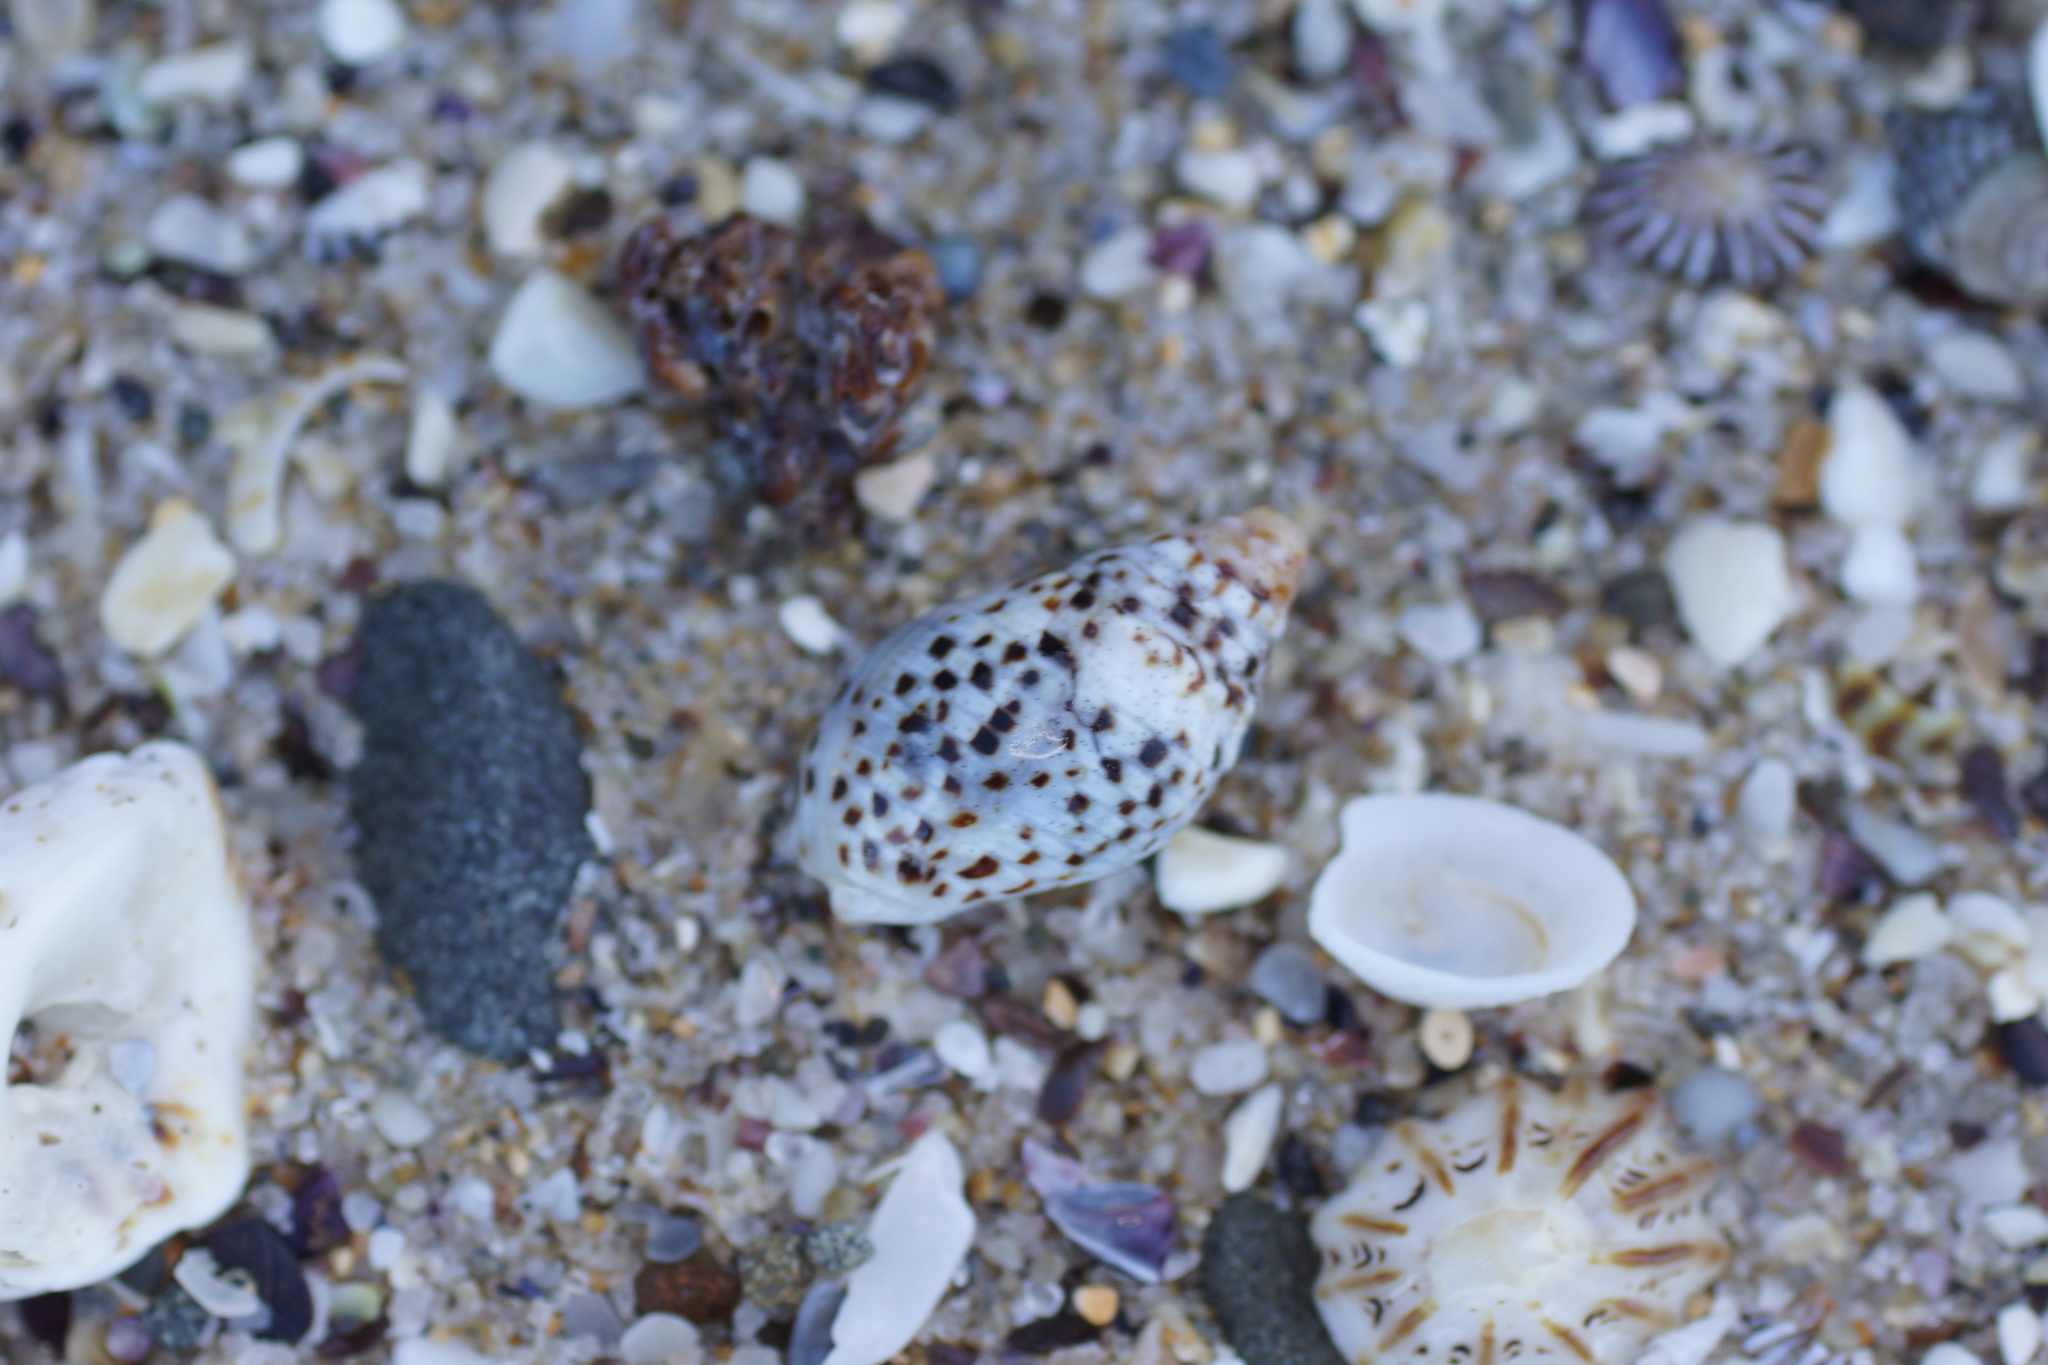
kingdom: Animalia
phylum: Mollusca
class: Gastropoda
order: Neogastropoda
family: Cominellidae
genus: Cominella
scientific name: Cominella lineolata
